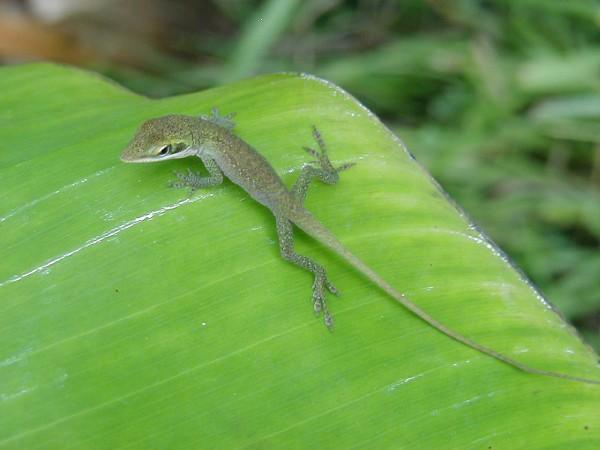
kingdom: Animalia
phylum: Chordata
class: Squamata
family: Dactyloidae
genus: Anolis
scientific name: Anolis carolinensis
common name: Green anole
